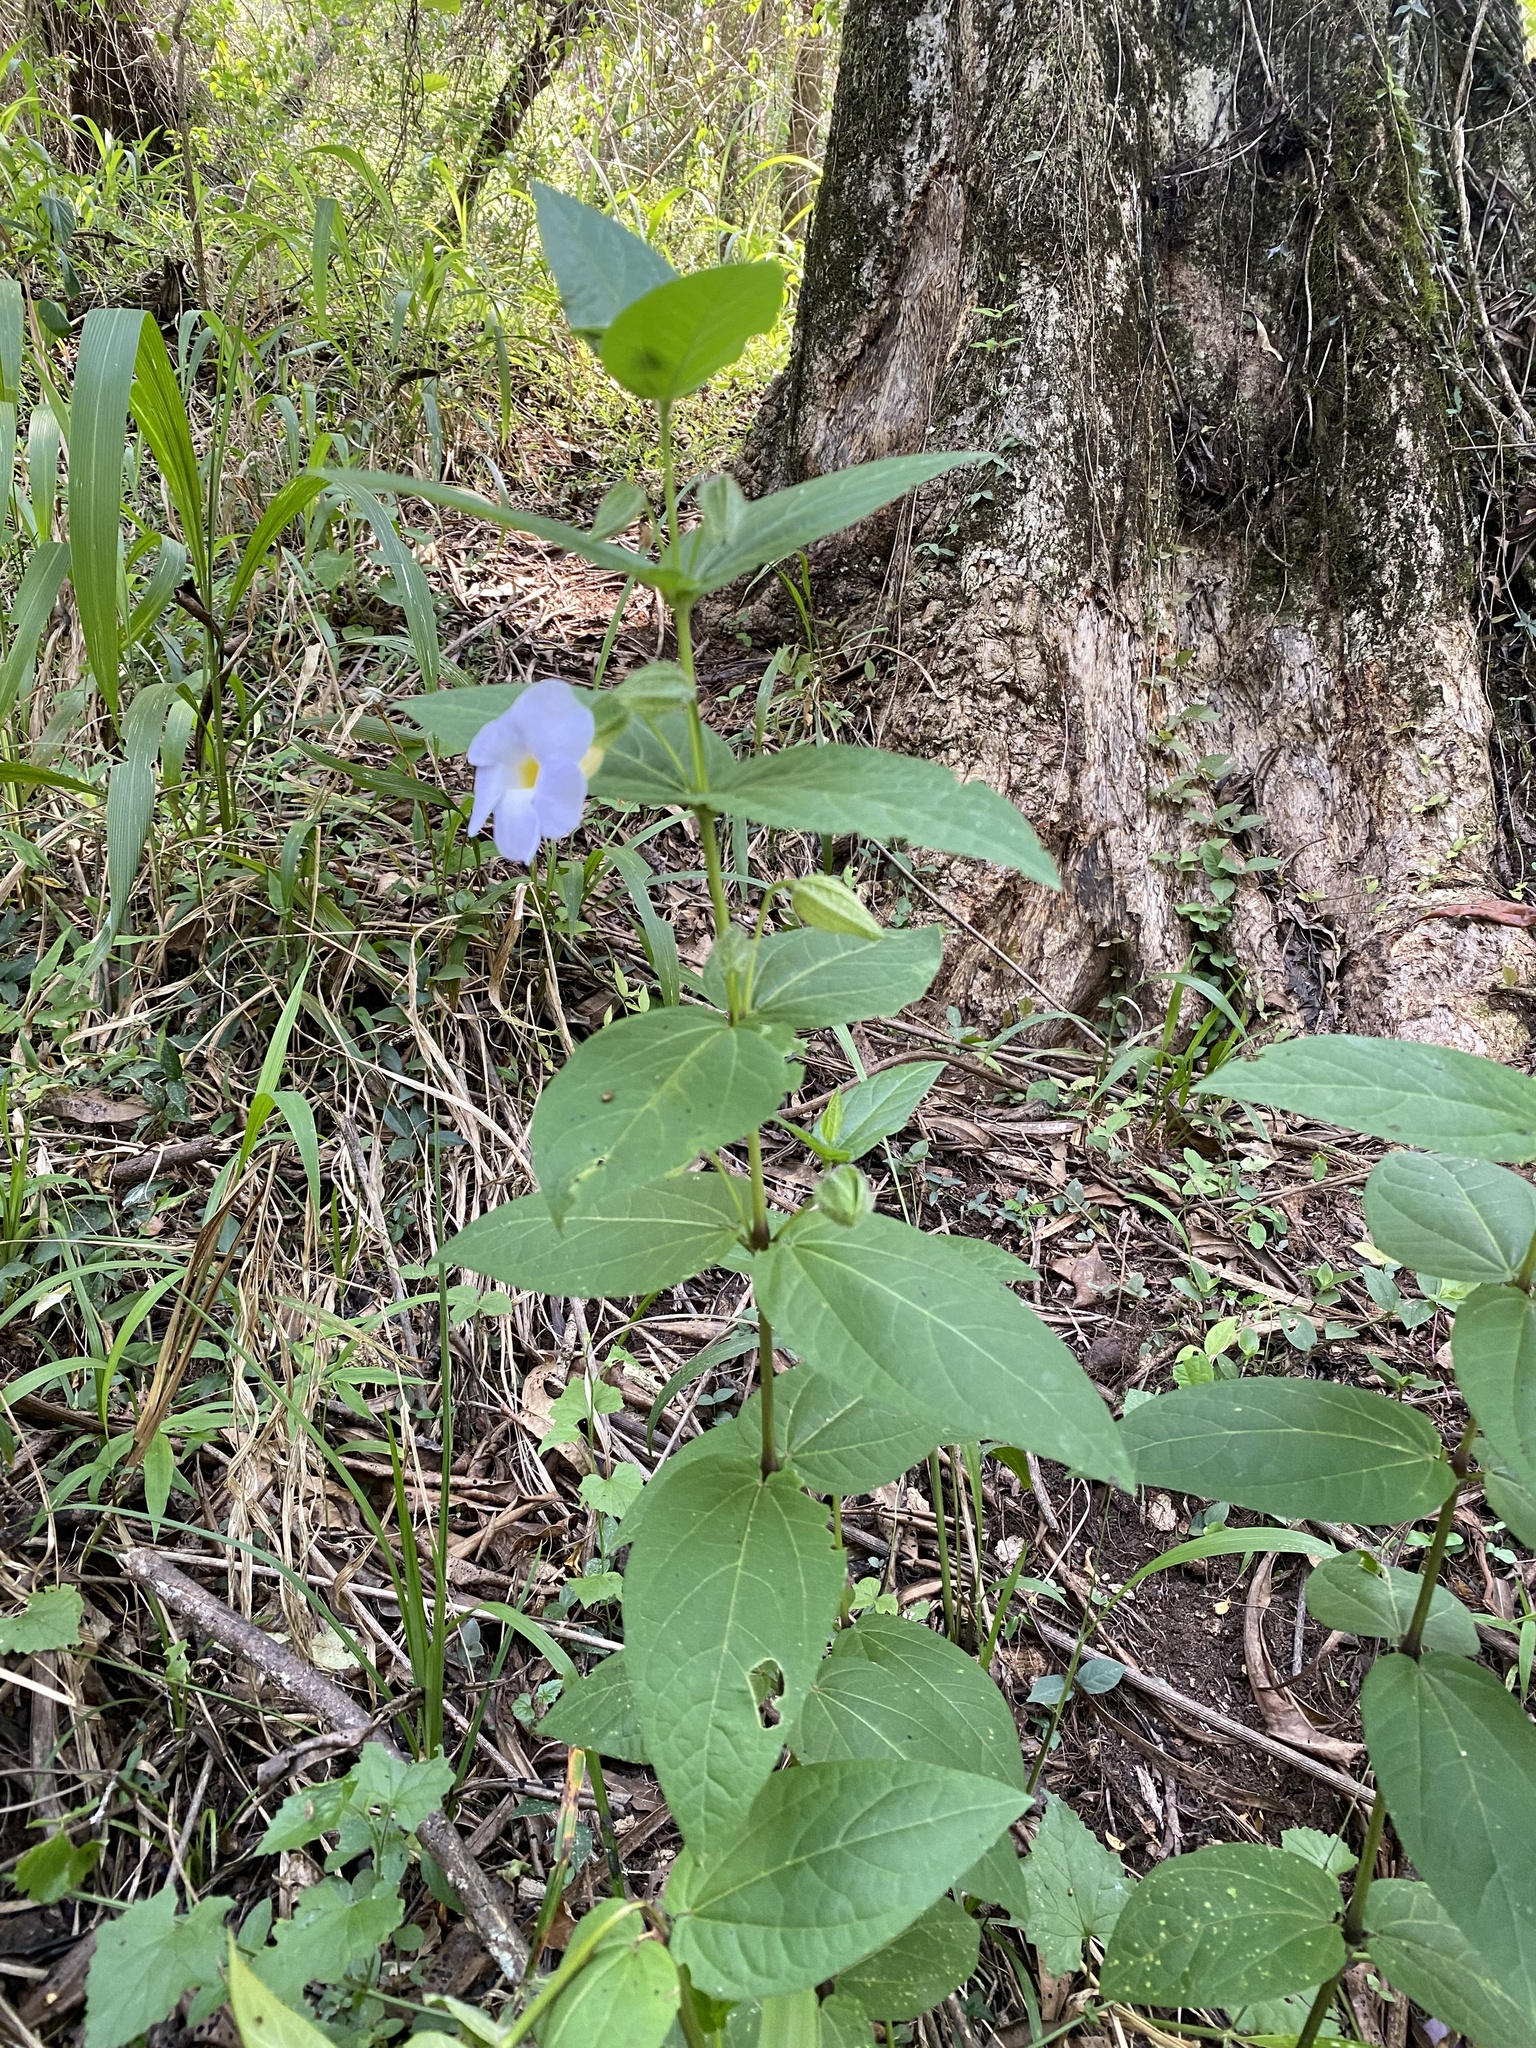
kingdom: Plantae
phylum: Tracheophyta
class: Magnoliopsida
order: Lamiales
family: Acanthaceae
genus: Thunbergia
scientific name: Thunbergia natalensis
